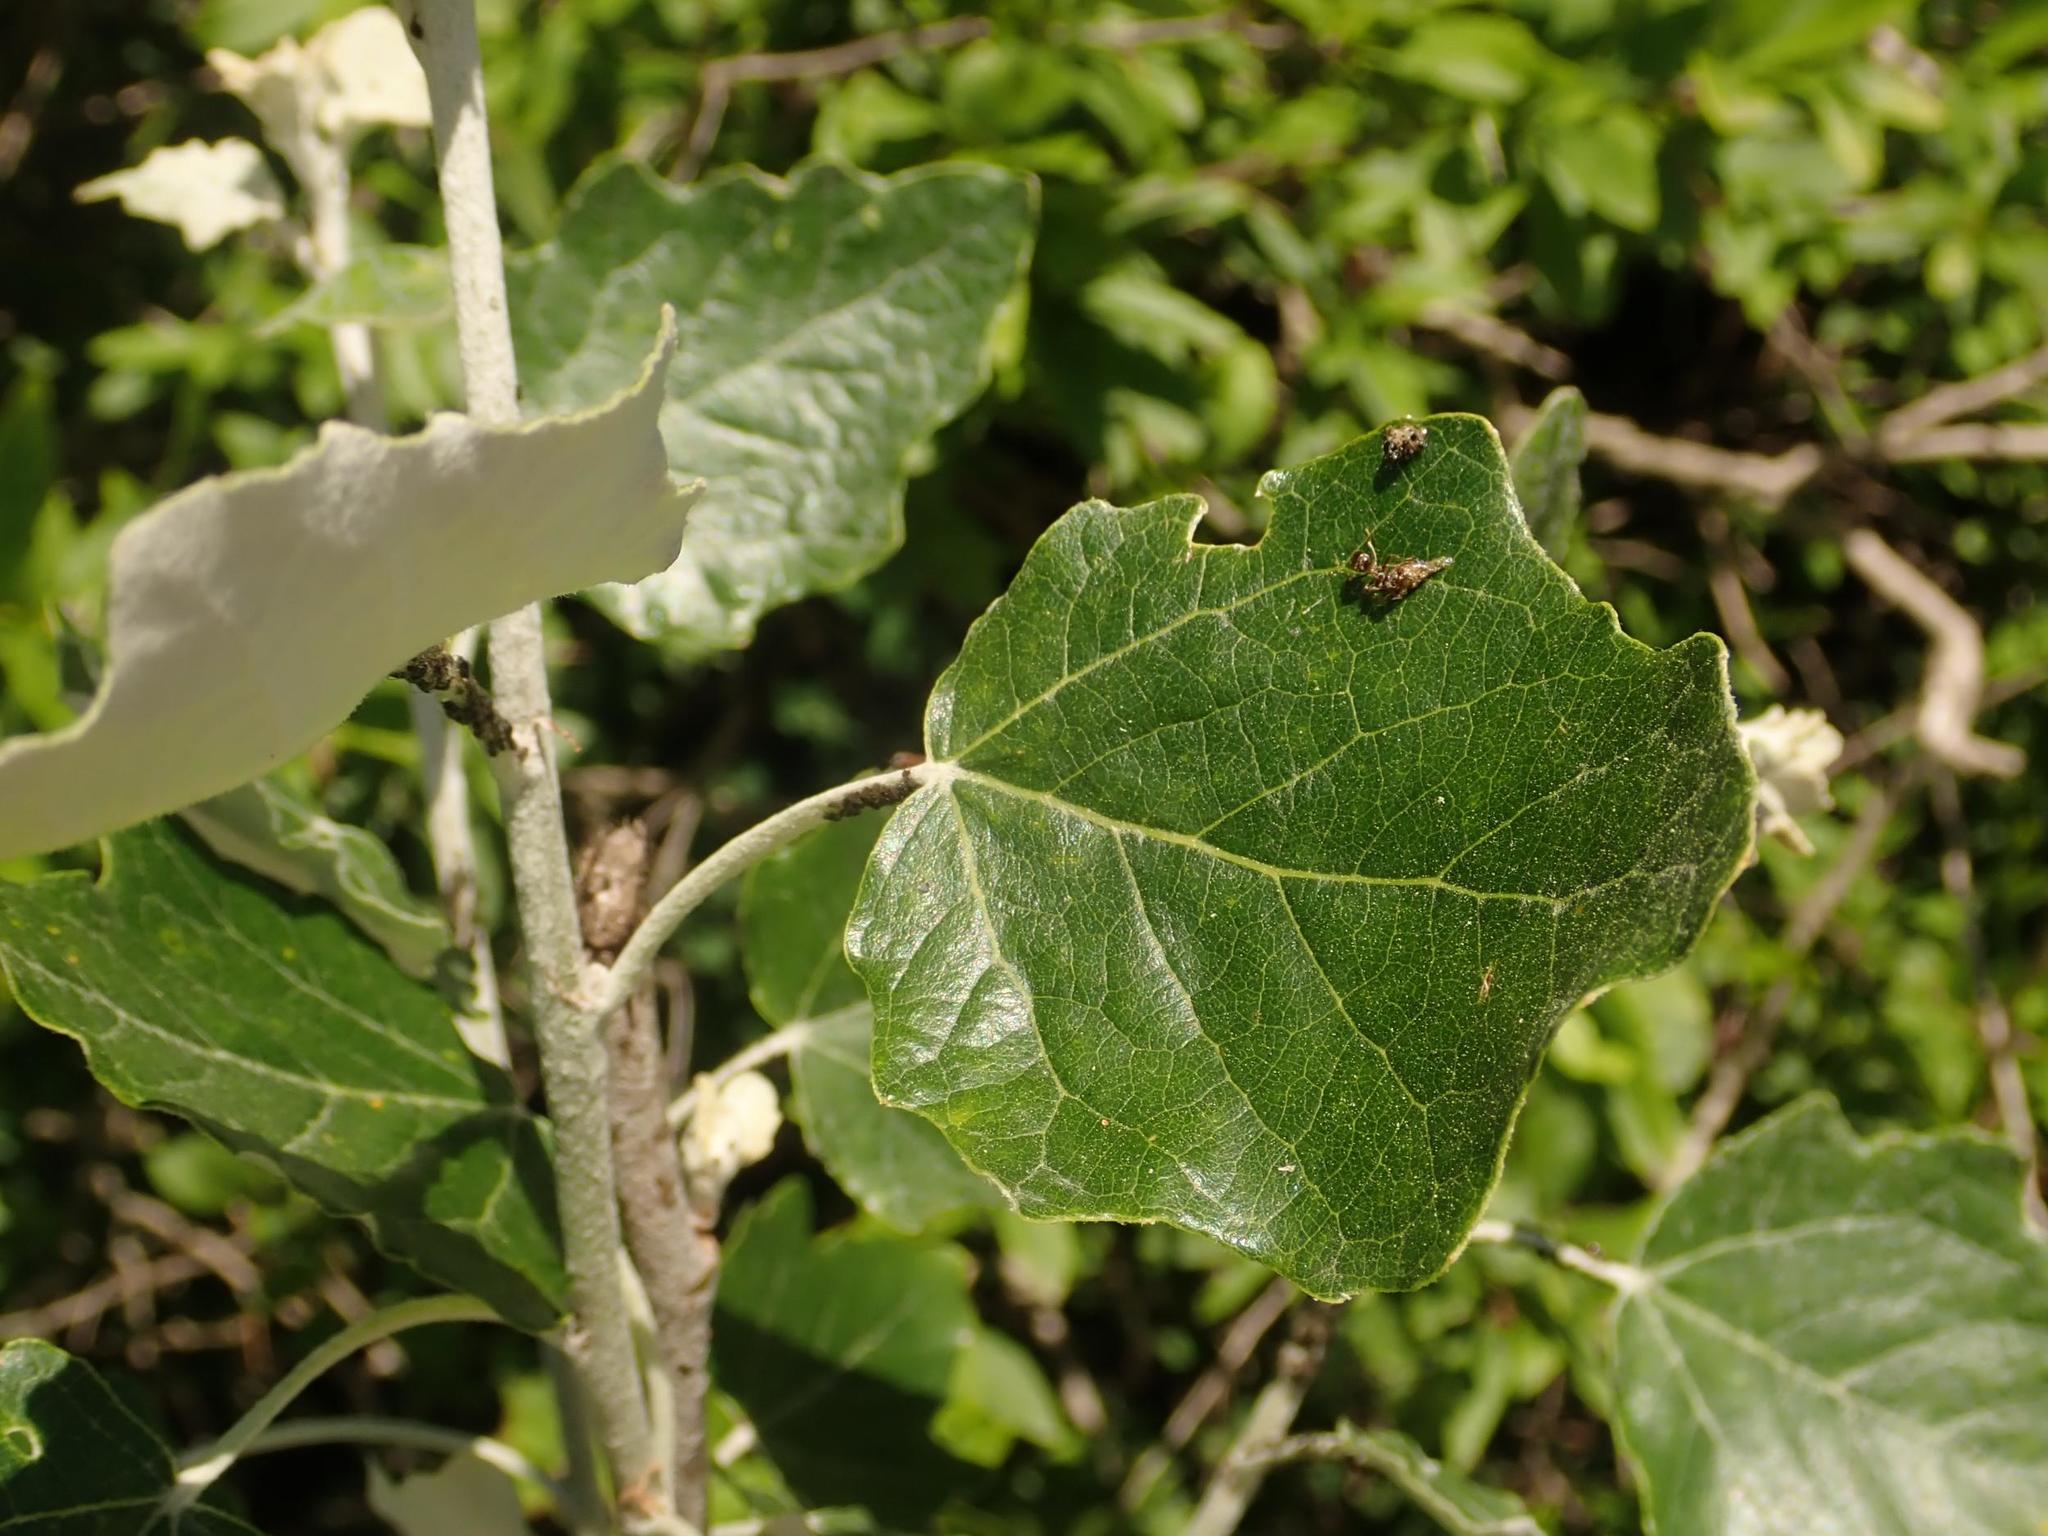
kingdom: Plantae
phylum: Tracheophyta
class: Magnoliopsida
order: Malpighiales
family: Salicaceae
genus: Populus
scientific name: Populus alba
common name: White poplar
